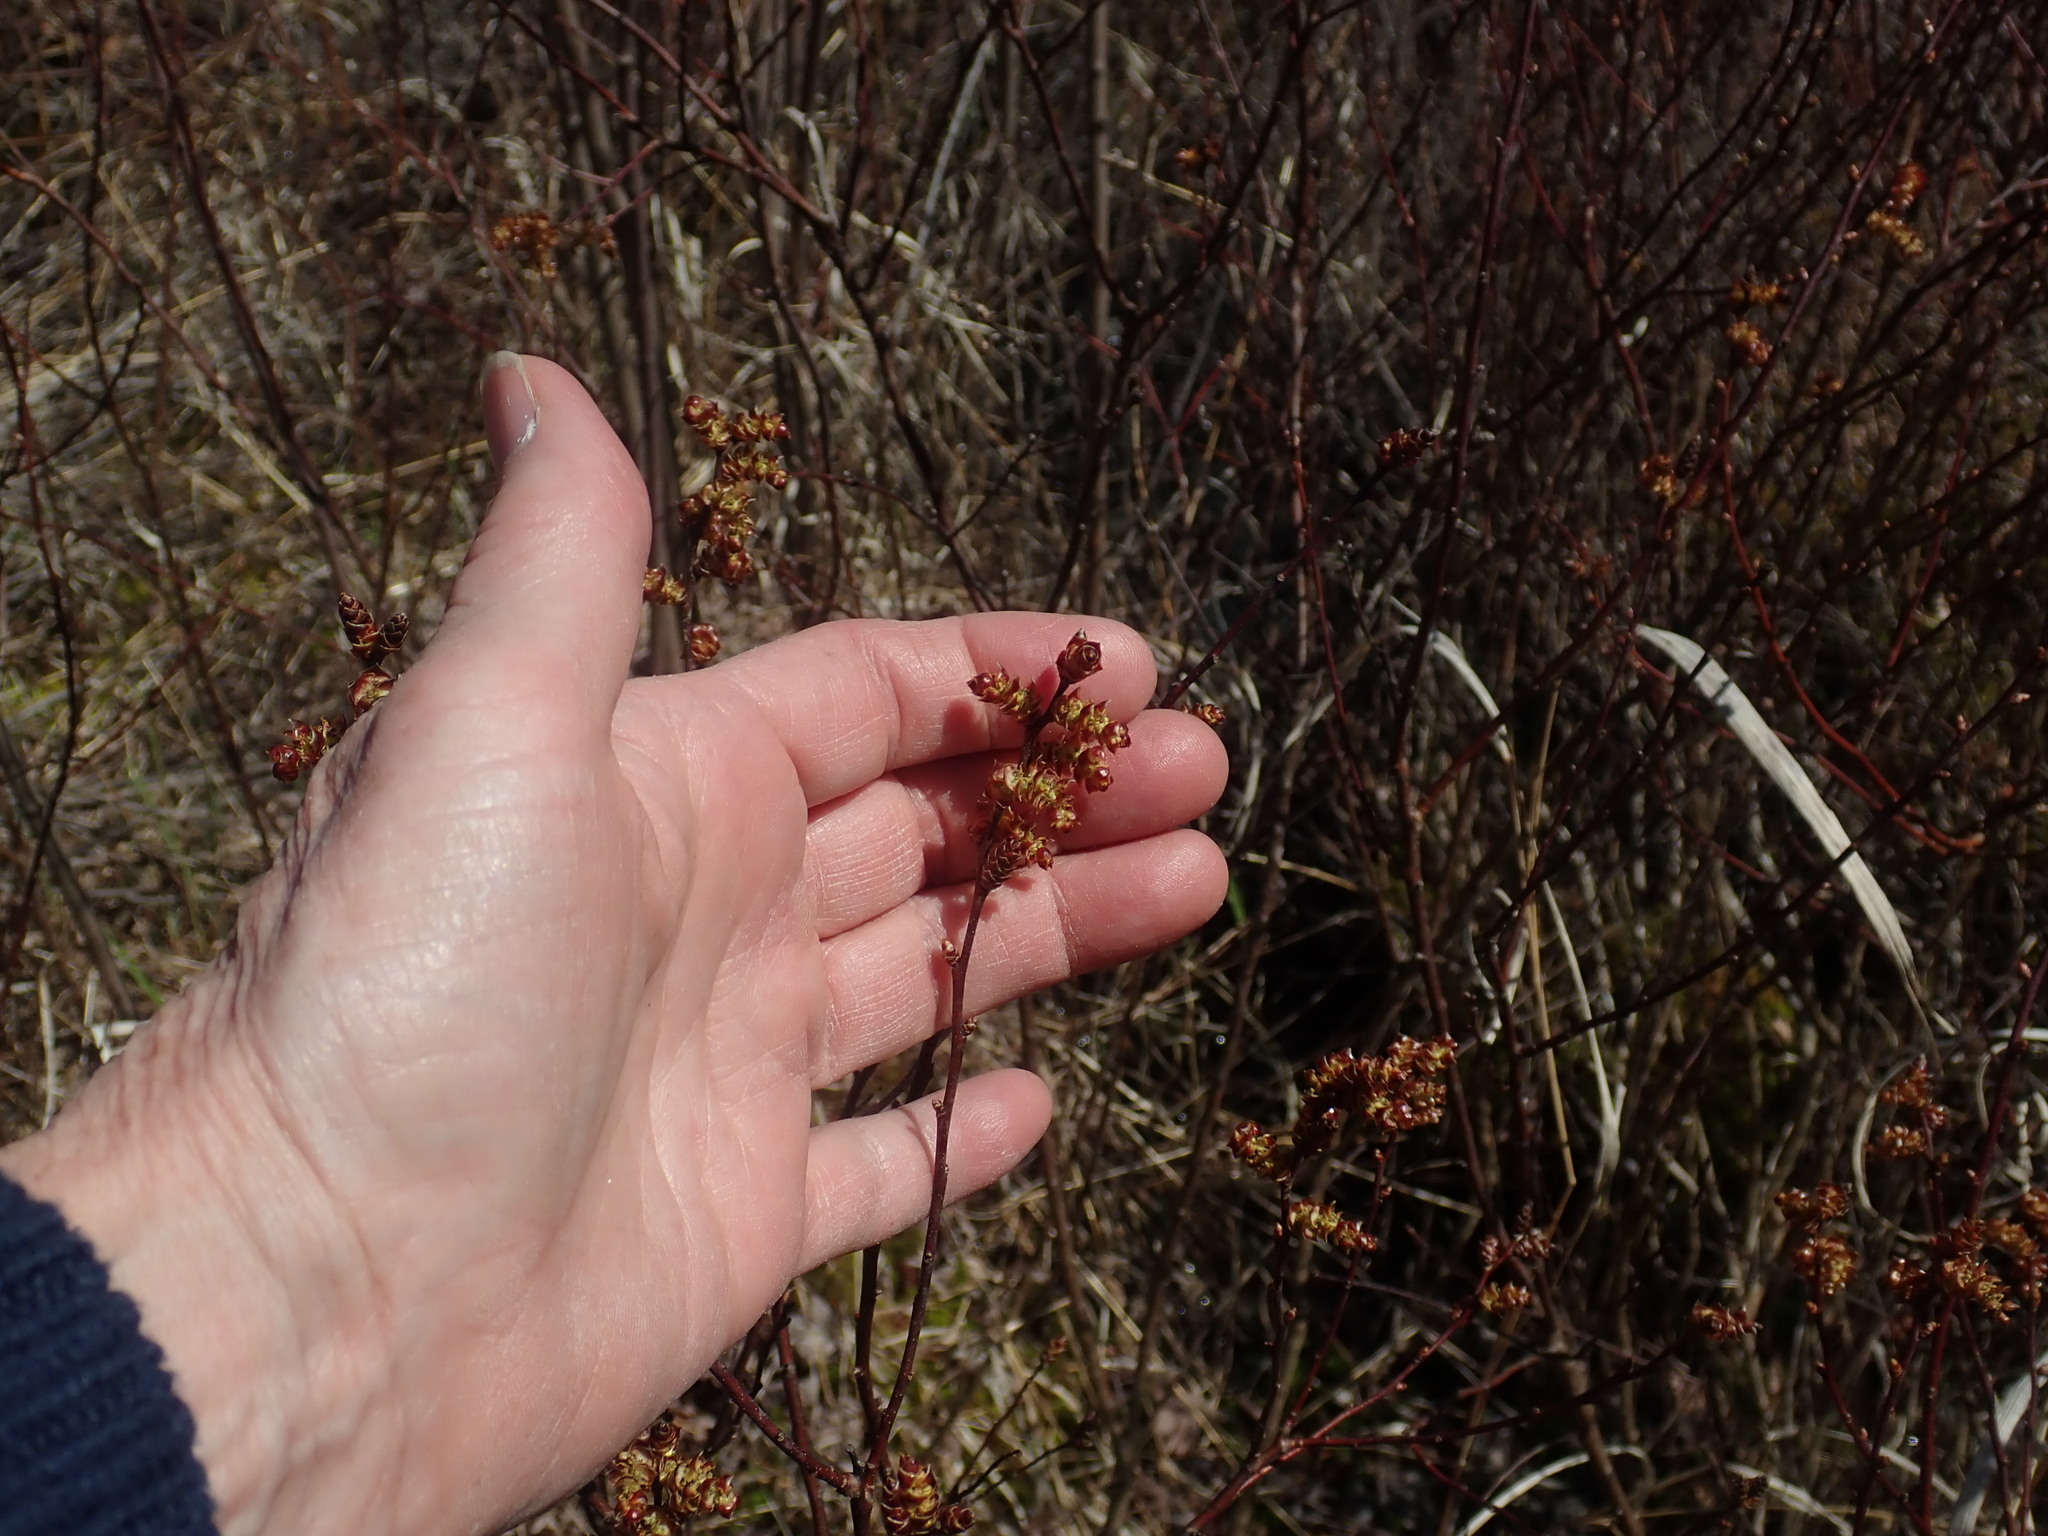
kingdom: Plantae
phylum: Tracheophyta
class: Magnoliopsida
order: Fagales
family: Myricaceae
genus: Myrica
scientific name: Myrica gale
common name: Sweet gale
